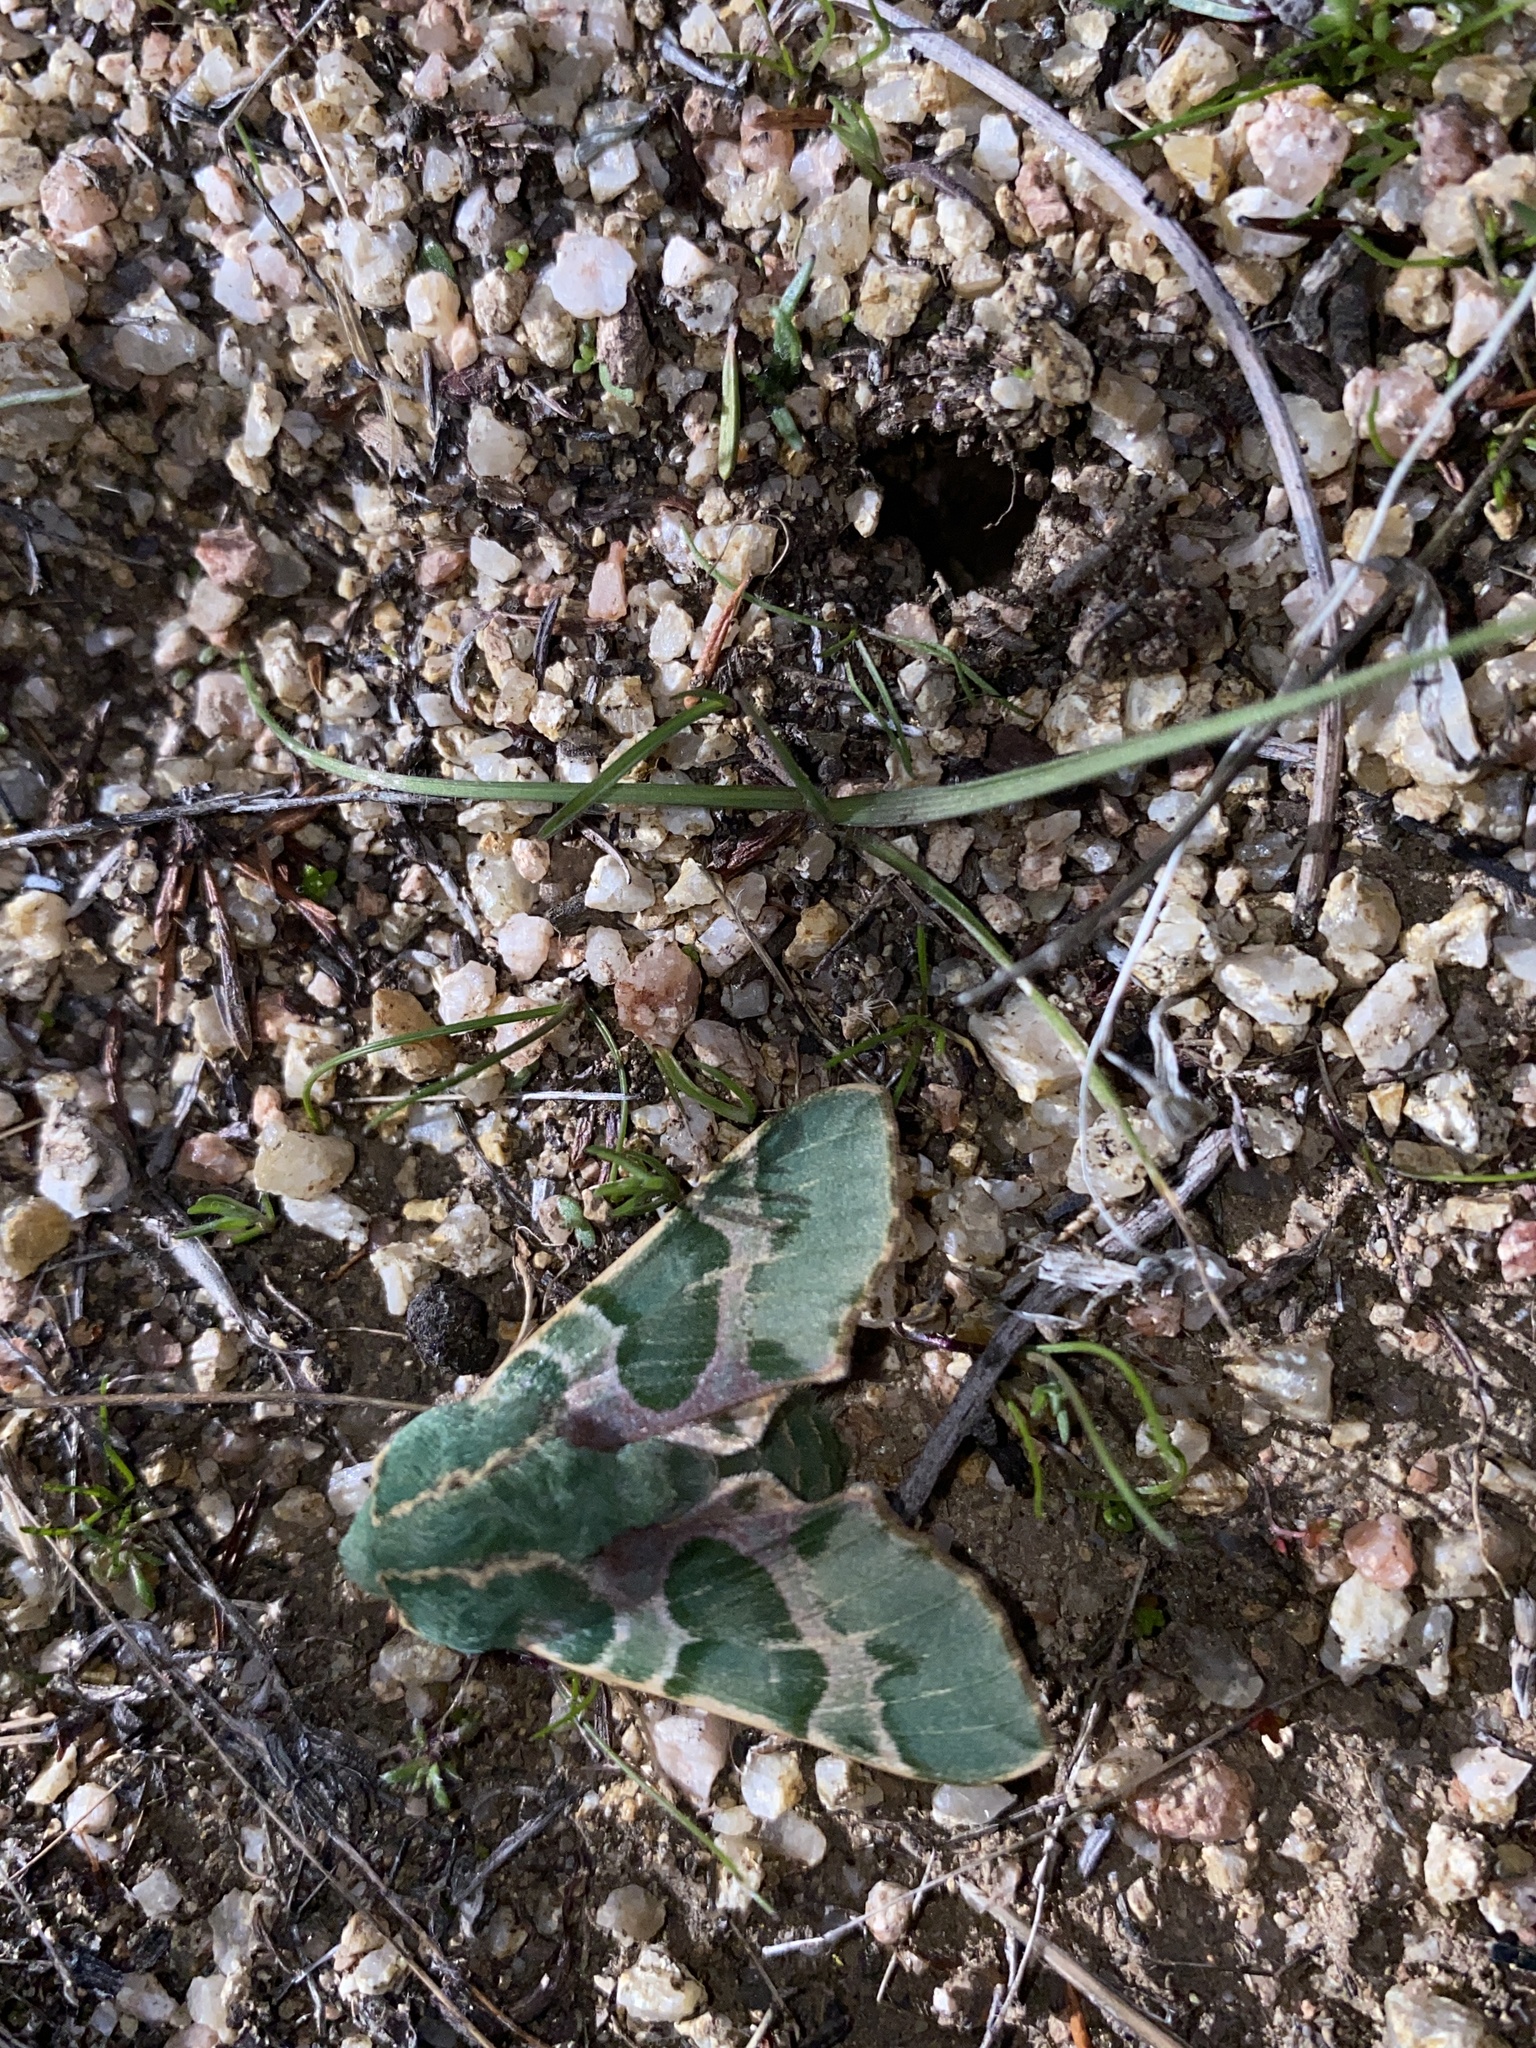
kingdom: Animalia
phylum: Arthropoda
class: Insecta
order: Lepidoptera
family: Sphingidae
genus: Proserpinus
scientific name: Proserpinus lucidus
